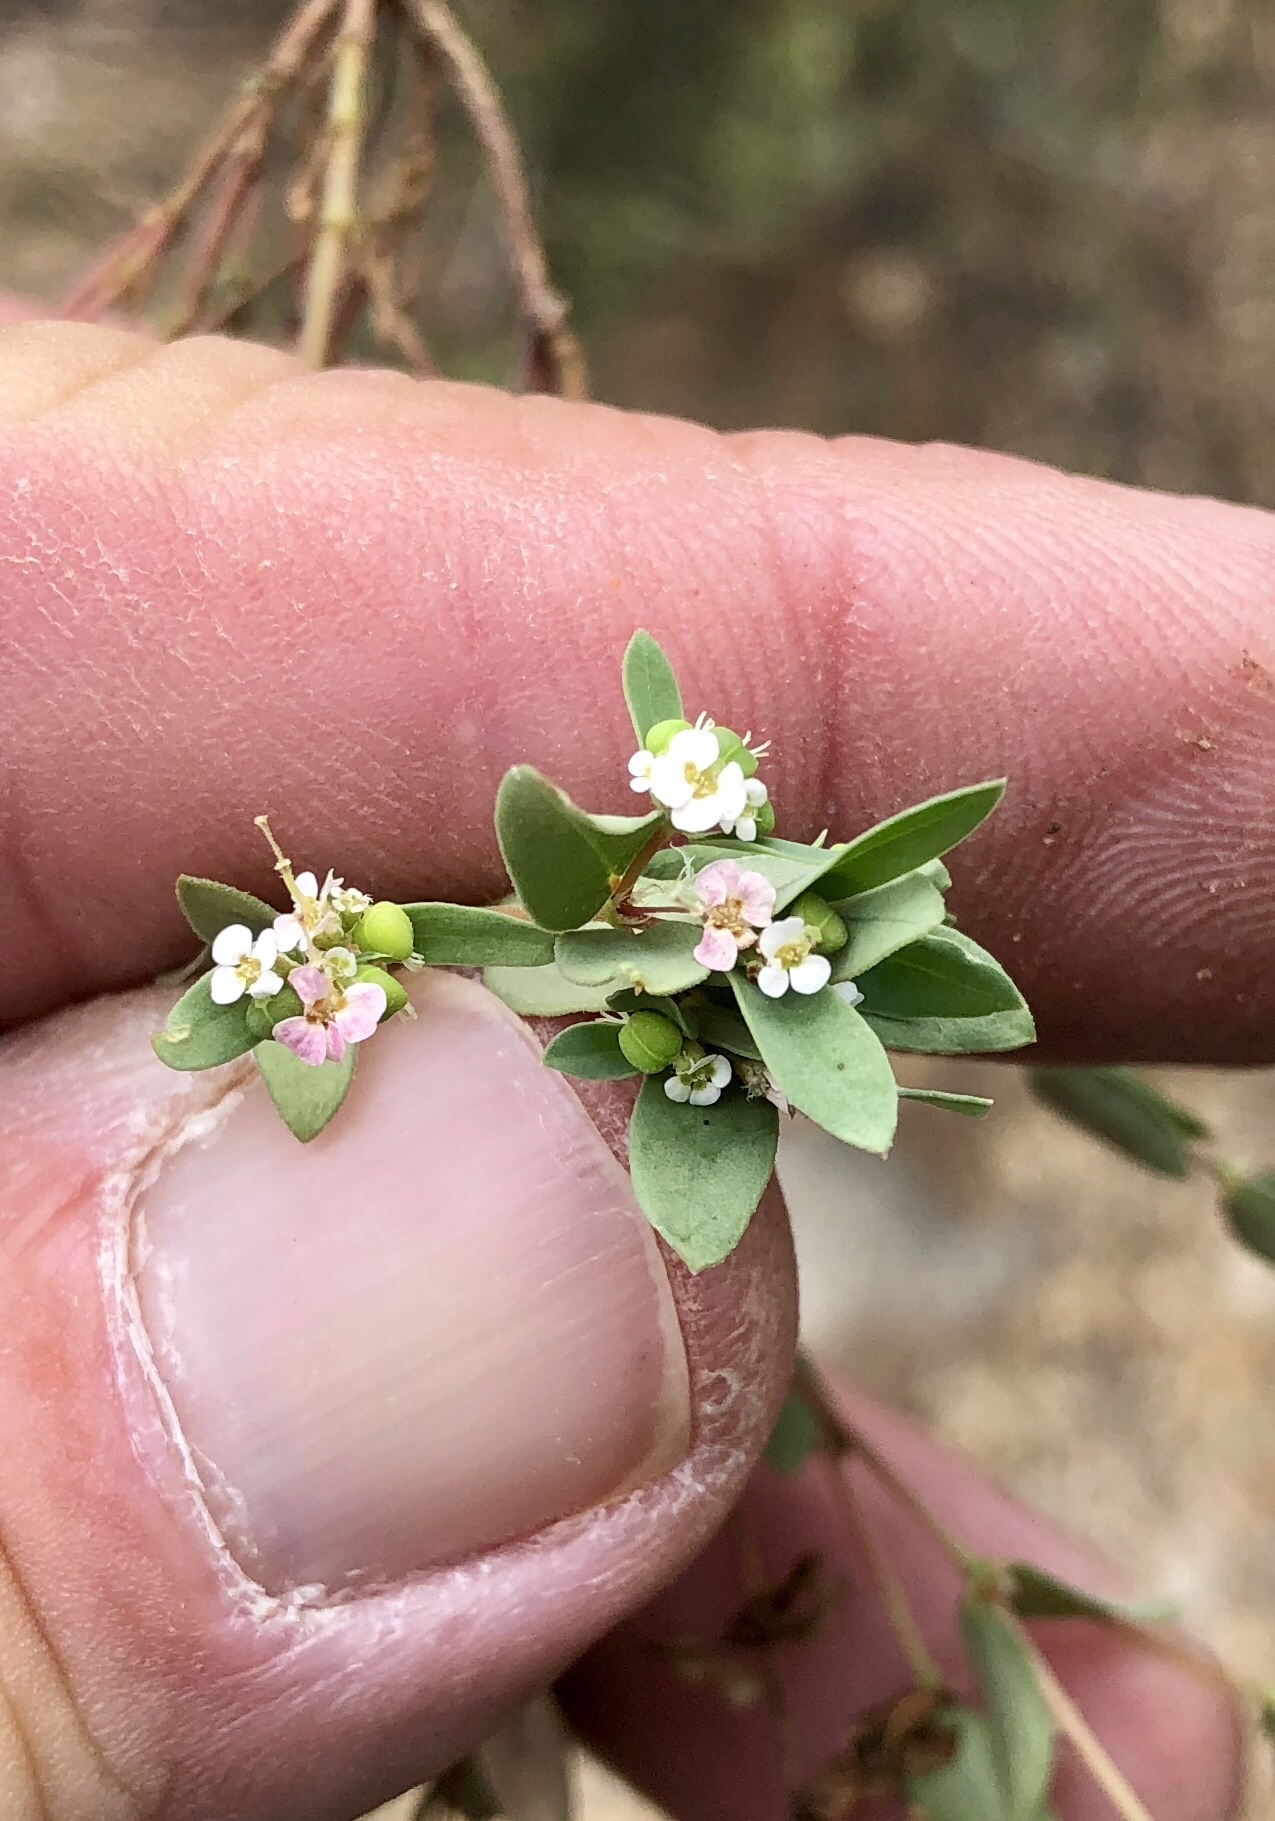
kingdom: Plantae
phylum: Tracheophyta
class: Magnoliopsida
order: Malpighiales
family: Euphorbiaceae
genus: Euphorbia
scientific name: Euphorbia capitellata
